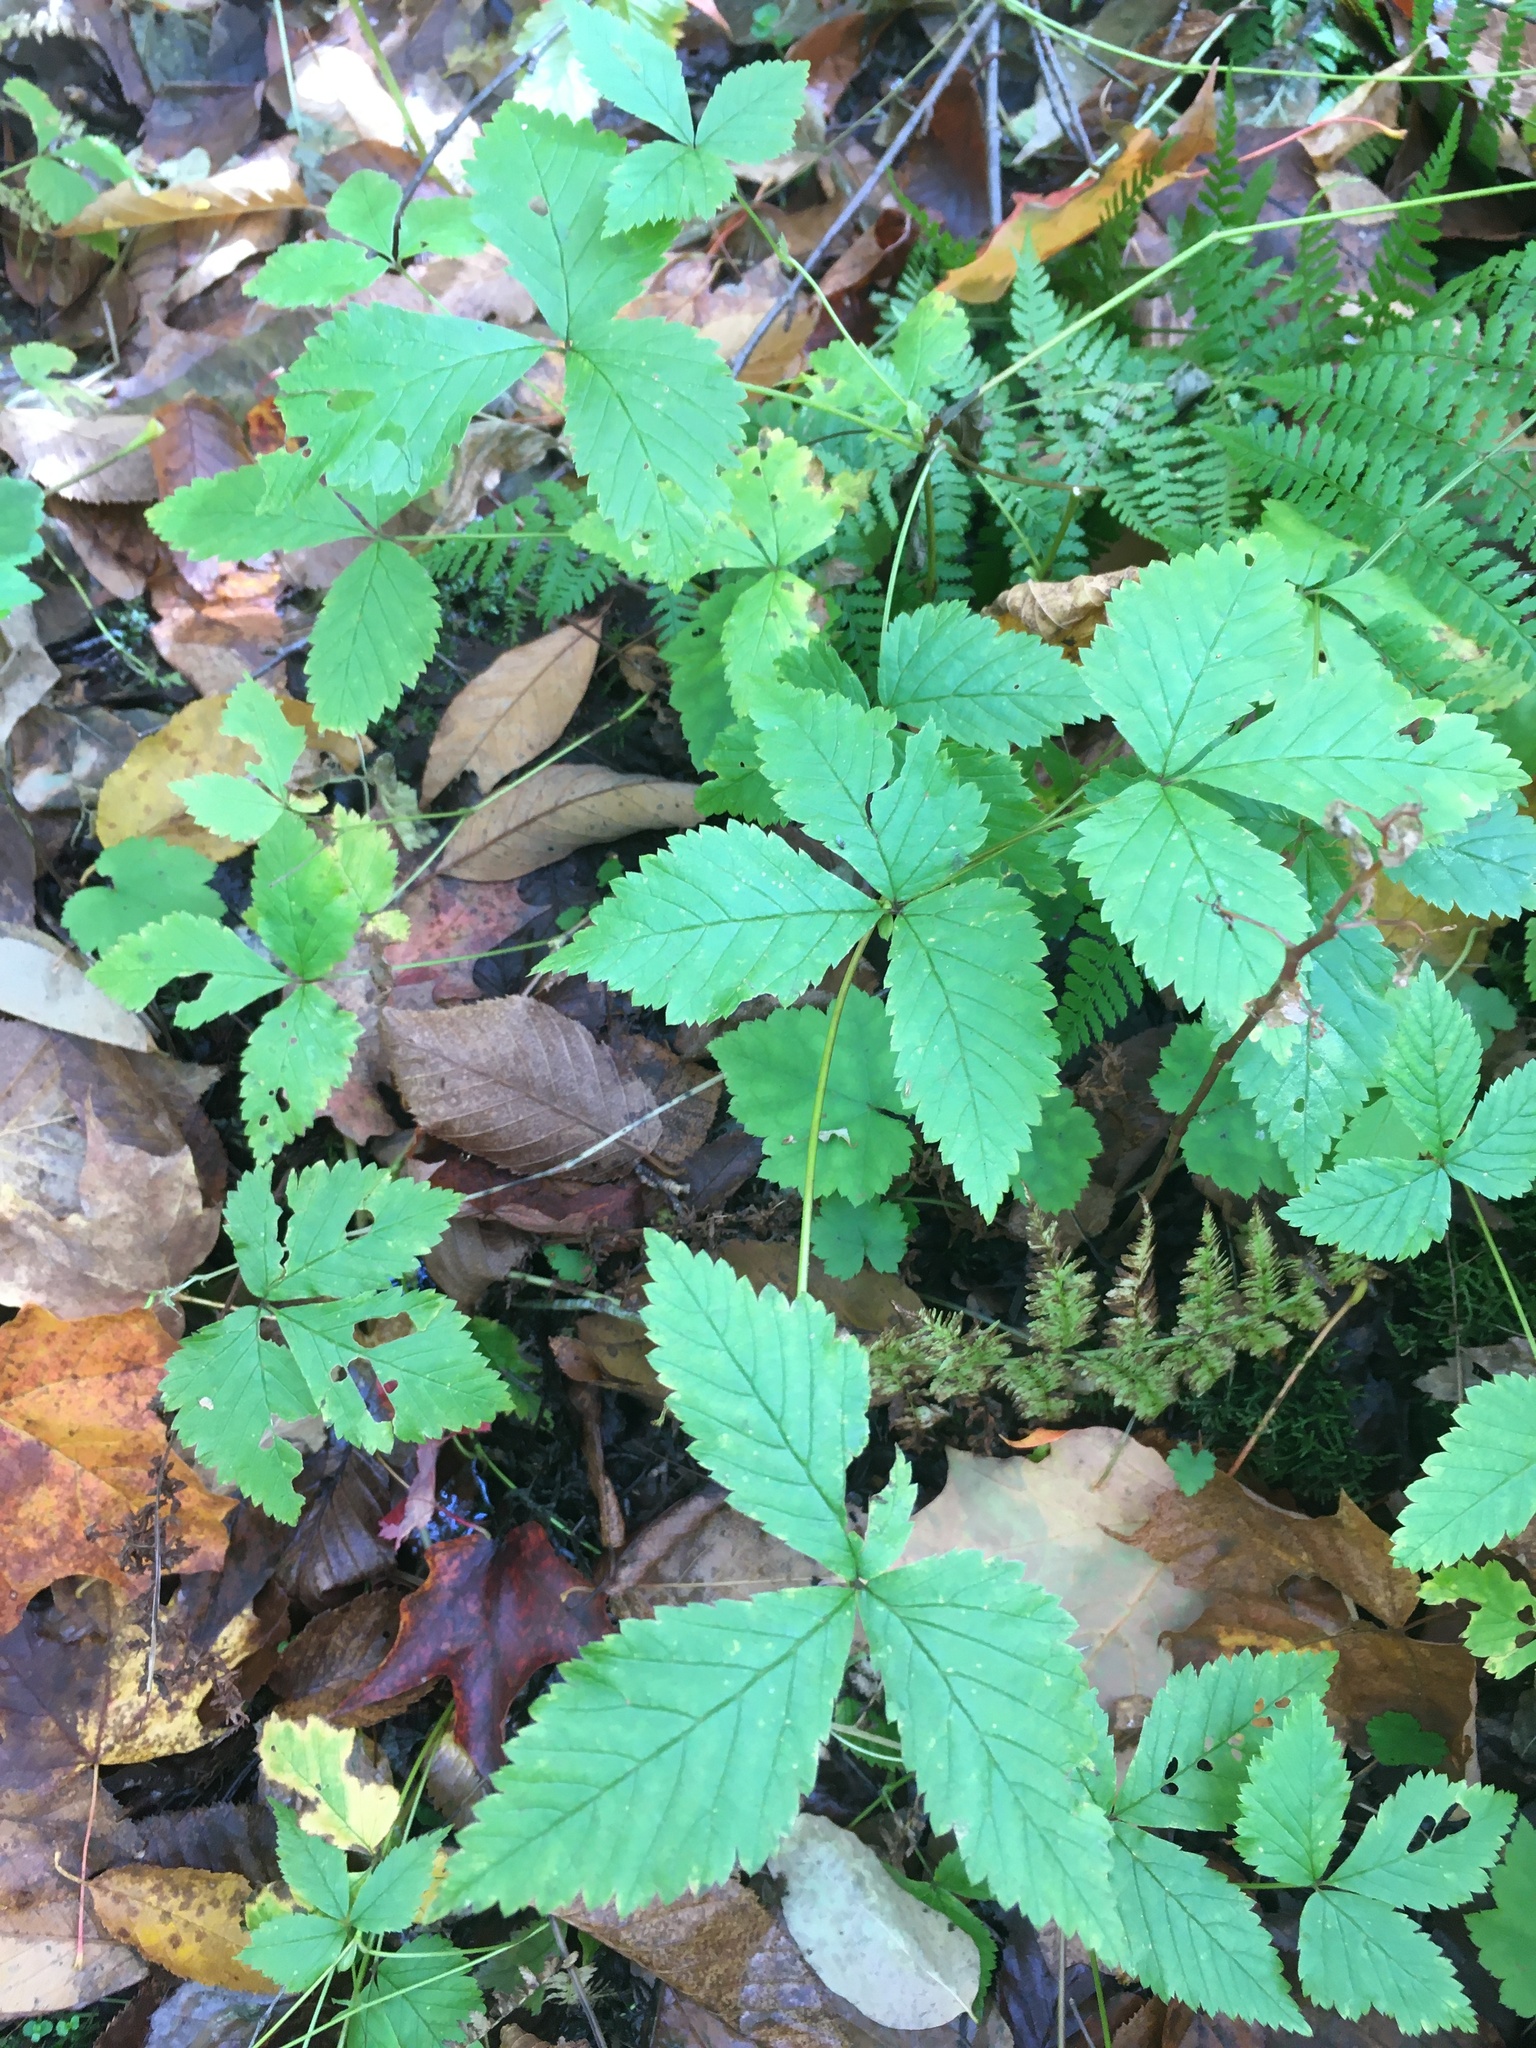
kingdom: Plantae
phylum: Tracheophyta
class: Magnoliopsida
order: Rosales
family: Rosaceae
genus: Rubus
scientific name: Rubus pubescens
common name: Dwarf raspberry
